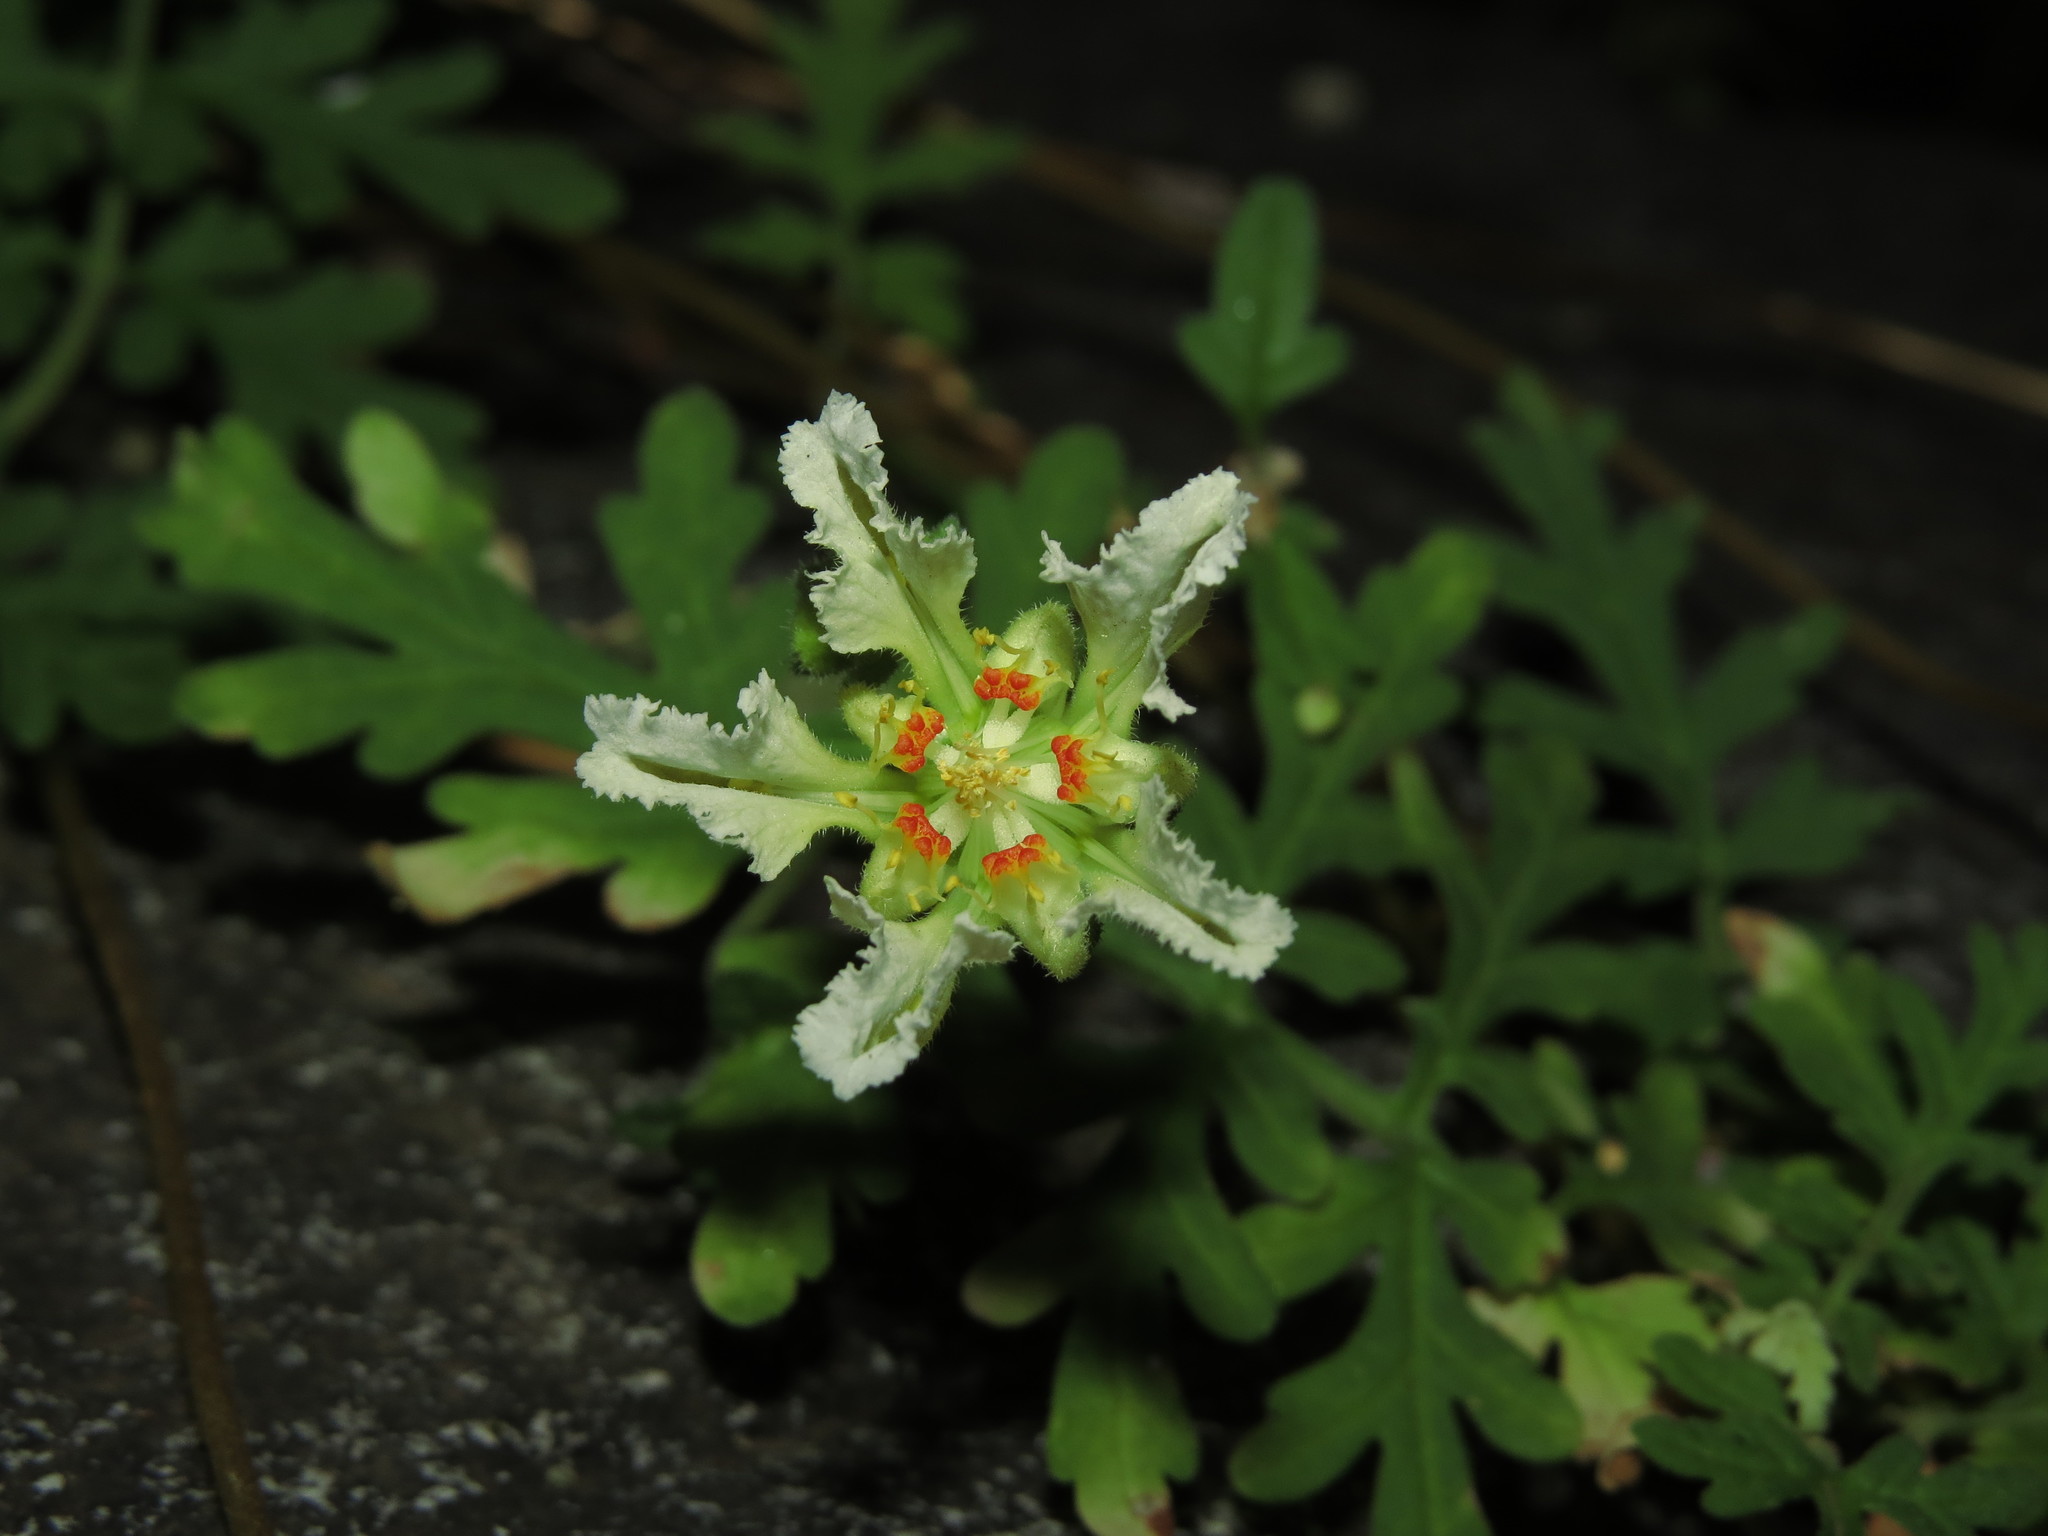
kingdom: Plantae
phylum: Tracheophyta
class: Magnoliopsida
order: Cornales
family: Loasaceae
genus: Pinnasa
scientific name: Pinnasa volubilis
